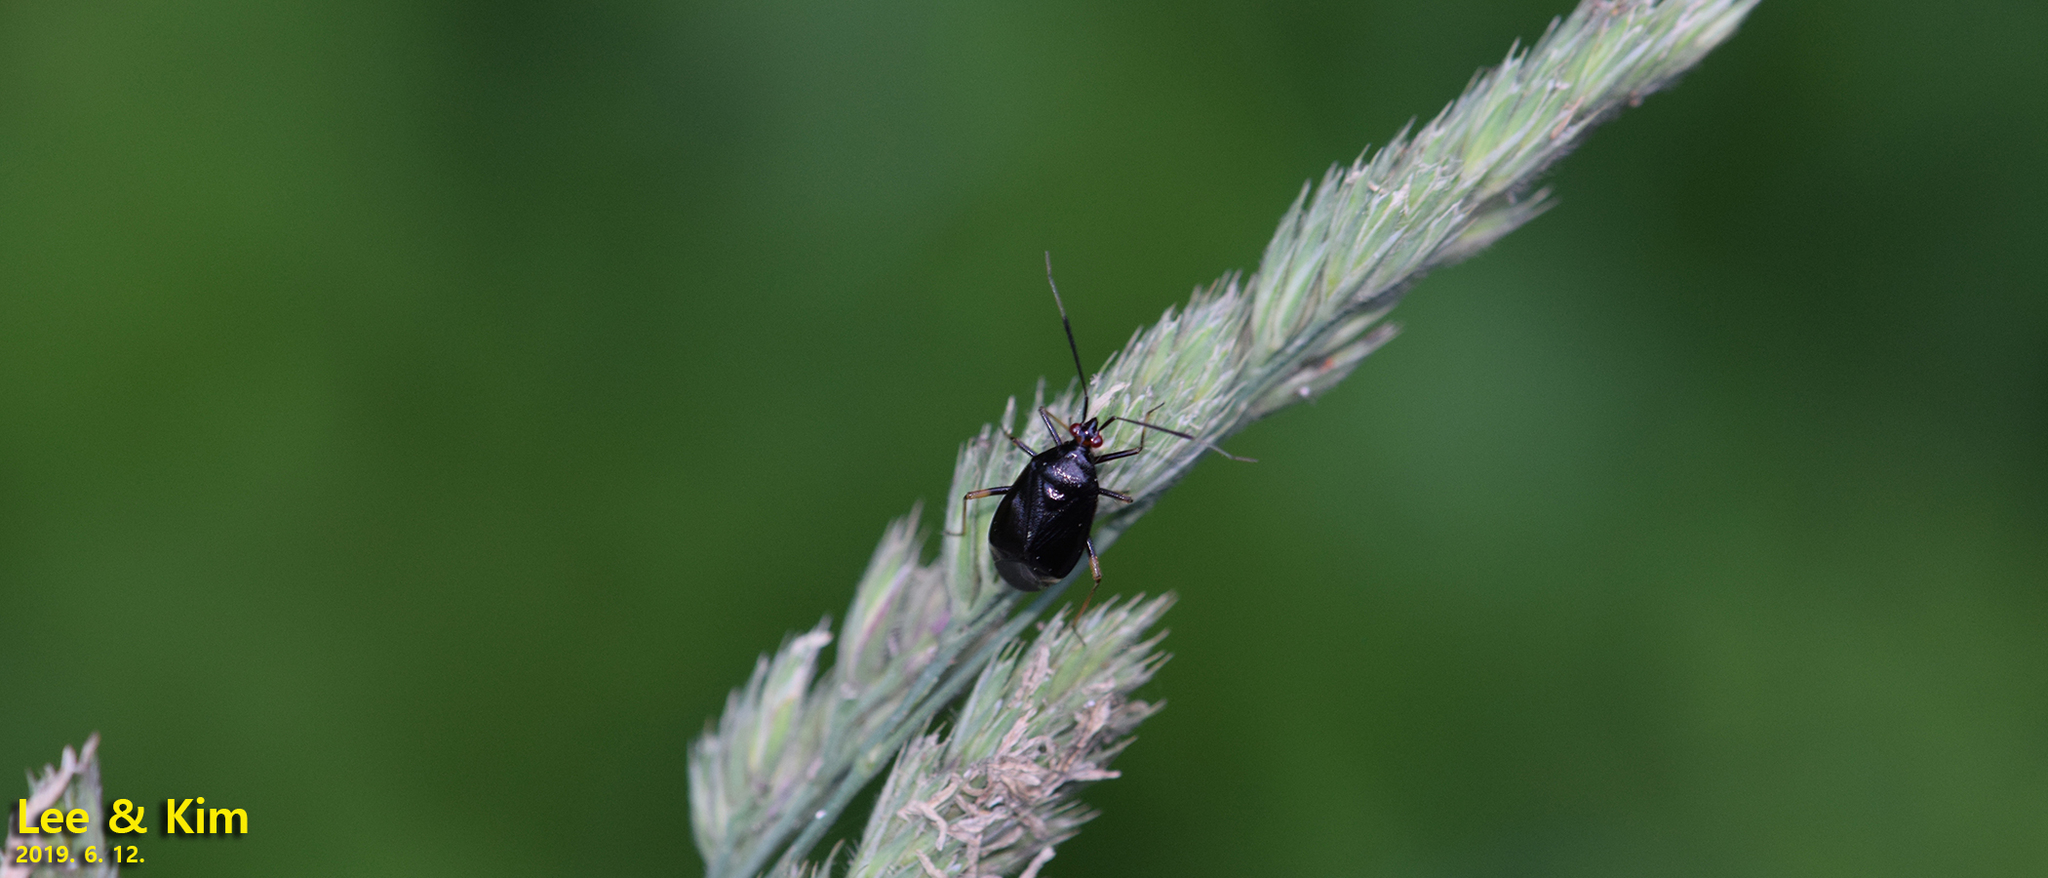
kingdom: Animalia
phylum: Arthropoda
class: Insecta
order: Hemiptera
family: Miridae
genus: Deraeocoris
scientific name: Deraeocoris ater
